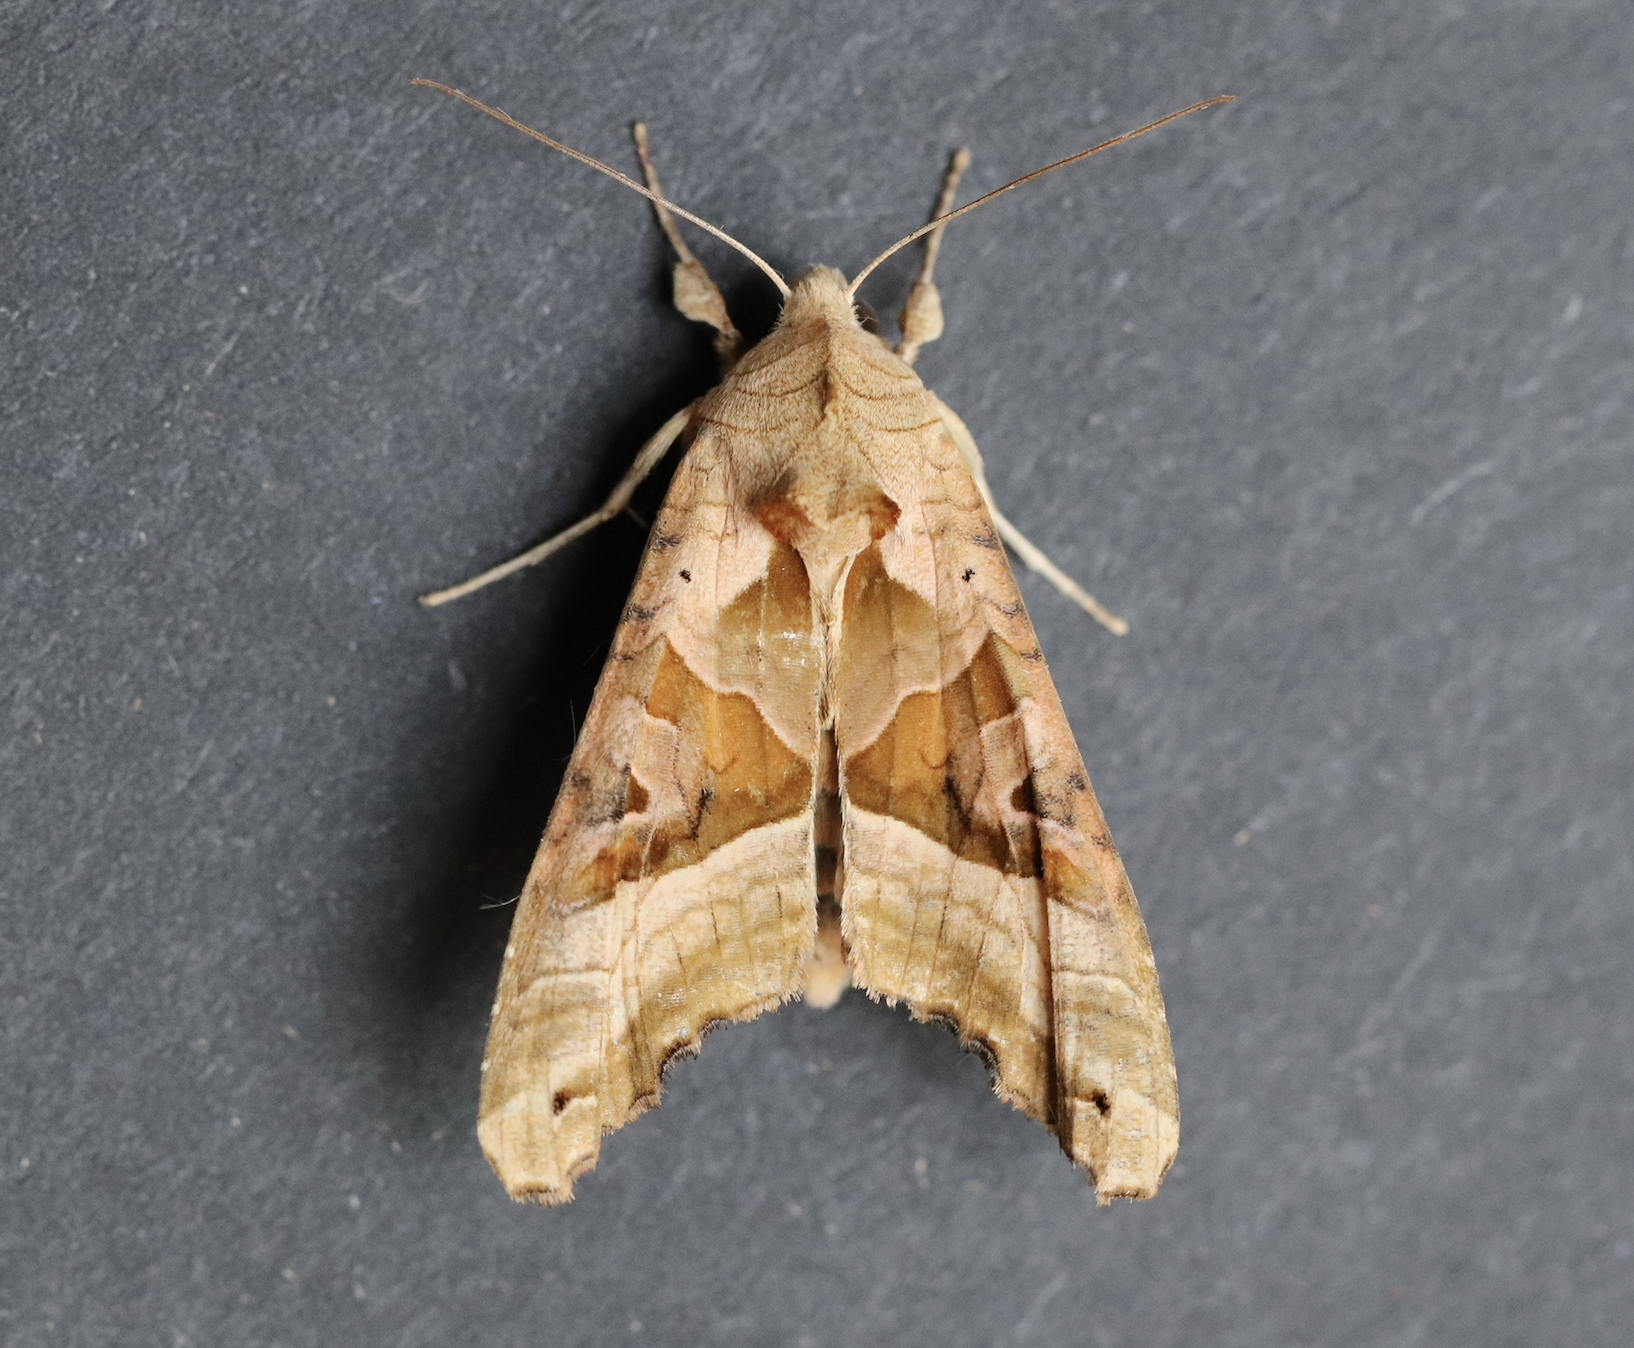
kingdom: Animalia
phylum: Arthropoda
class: Insecta
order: Lepidoptera
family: Noctuidae
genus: Phlogophora
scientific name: Phlogophora meticulosa
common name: Angle shades
